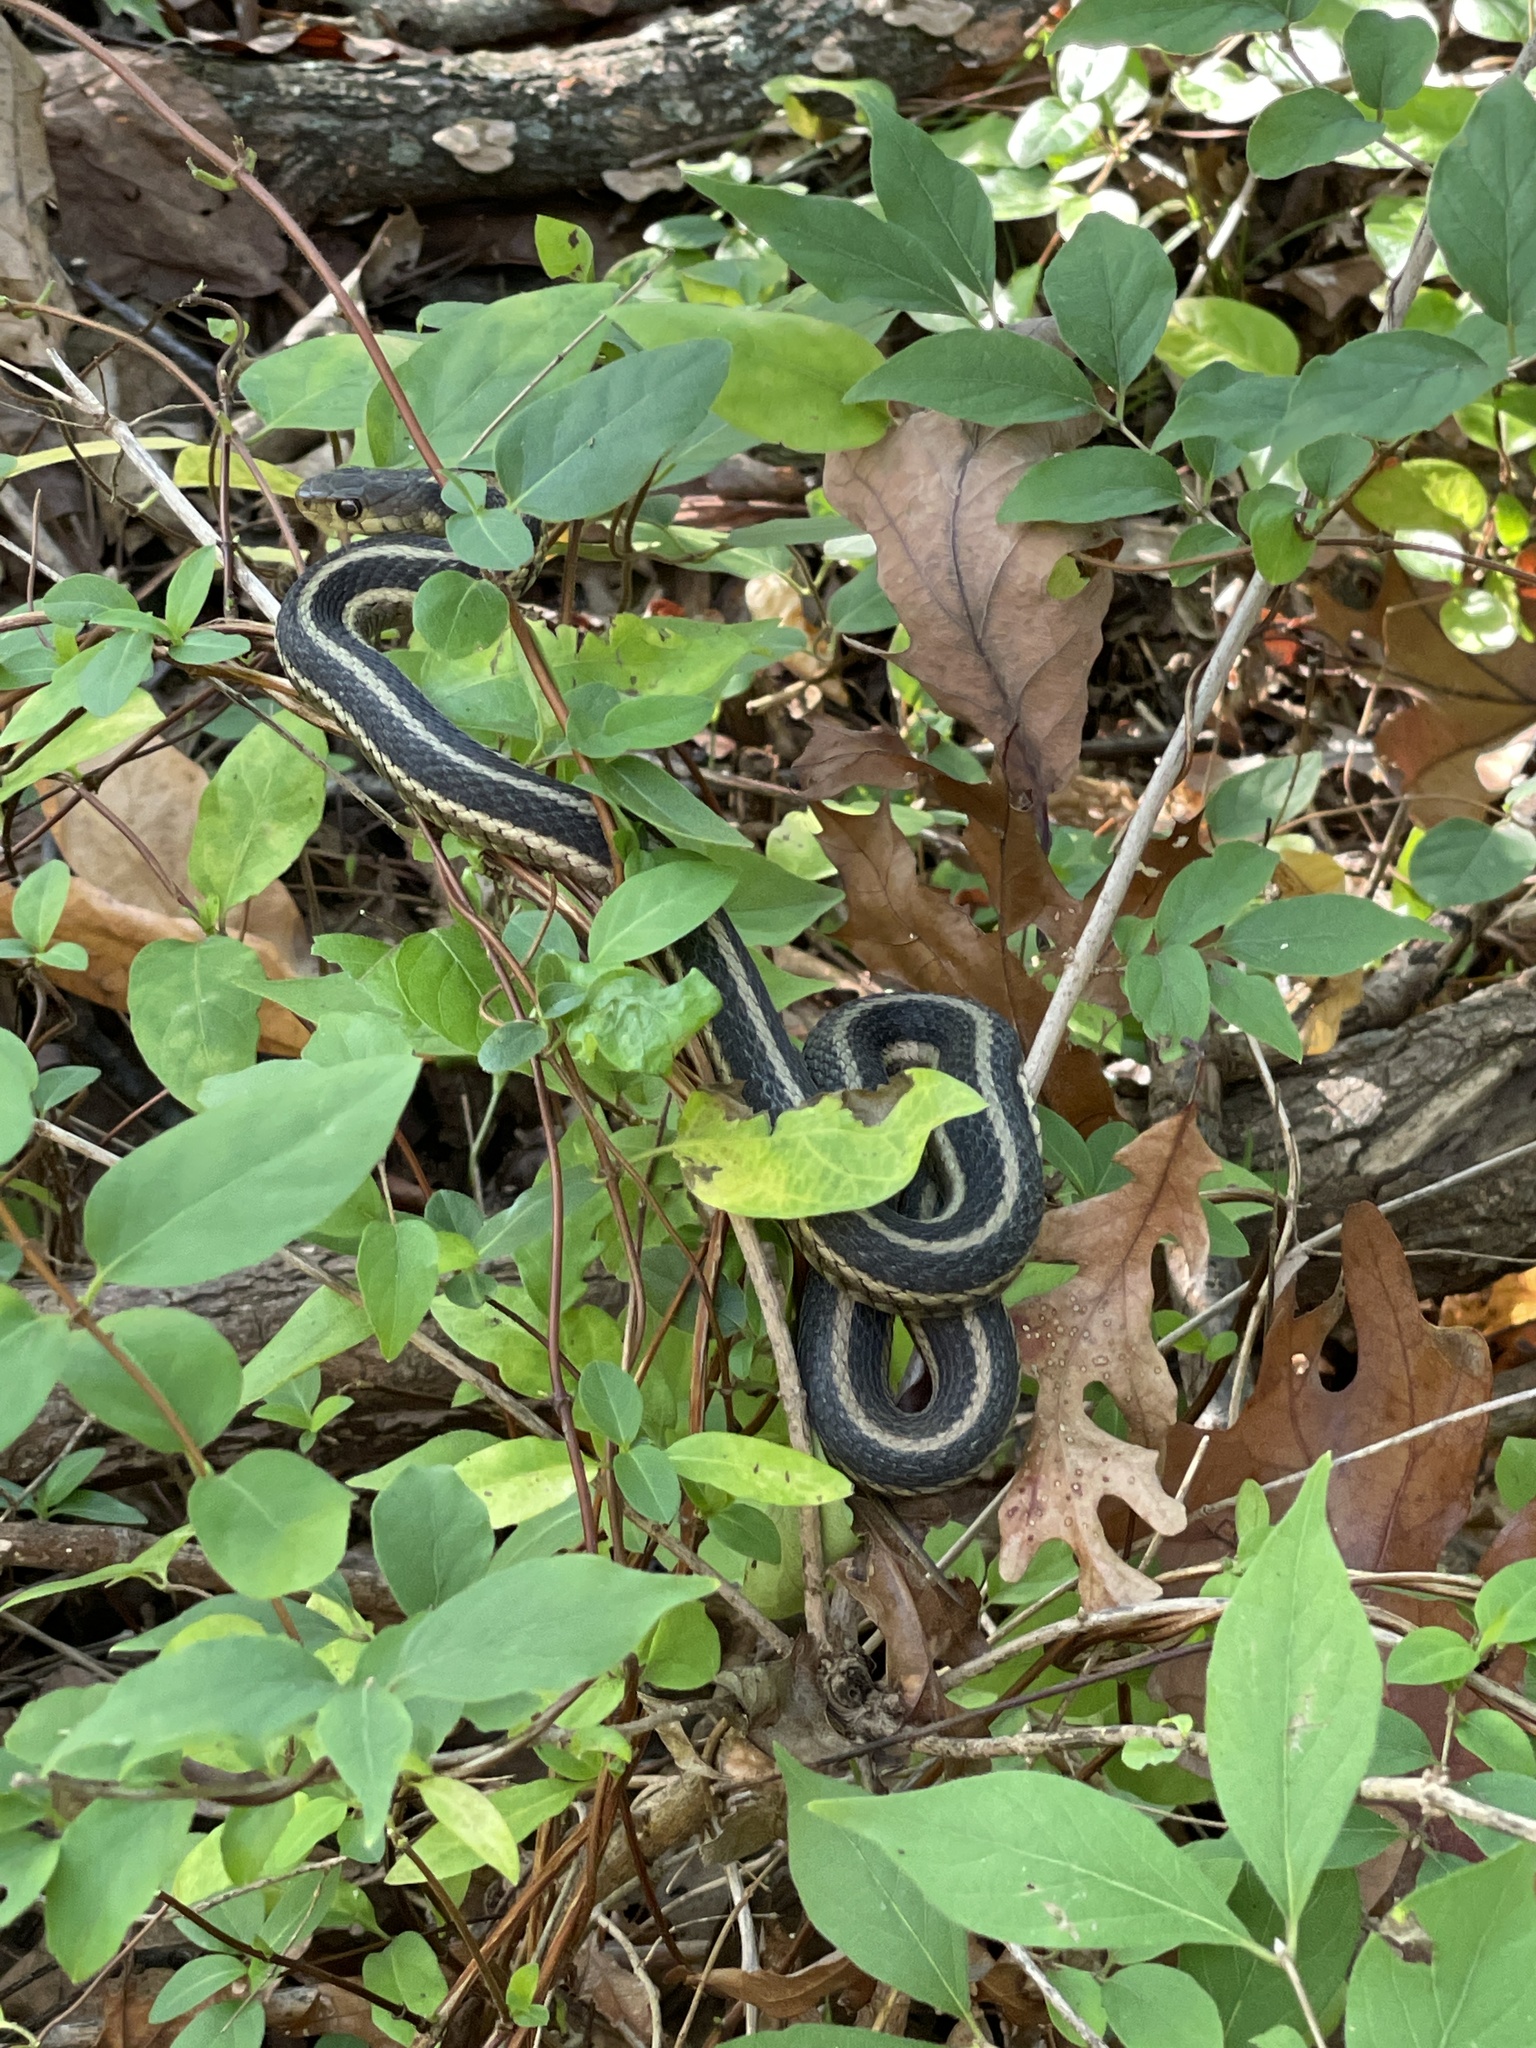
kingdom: Animalia
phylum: Chordata
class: Squamata
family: Colubridae
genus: Thamnophis
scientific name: Thamnophis sirtalis
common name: Common garter snake
